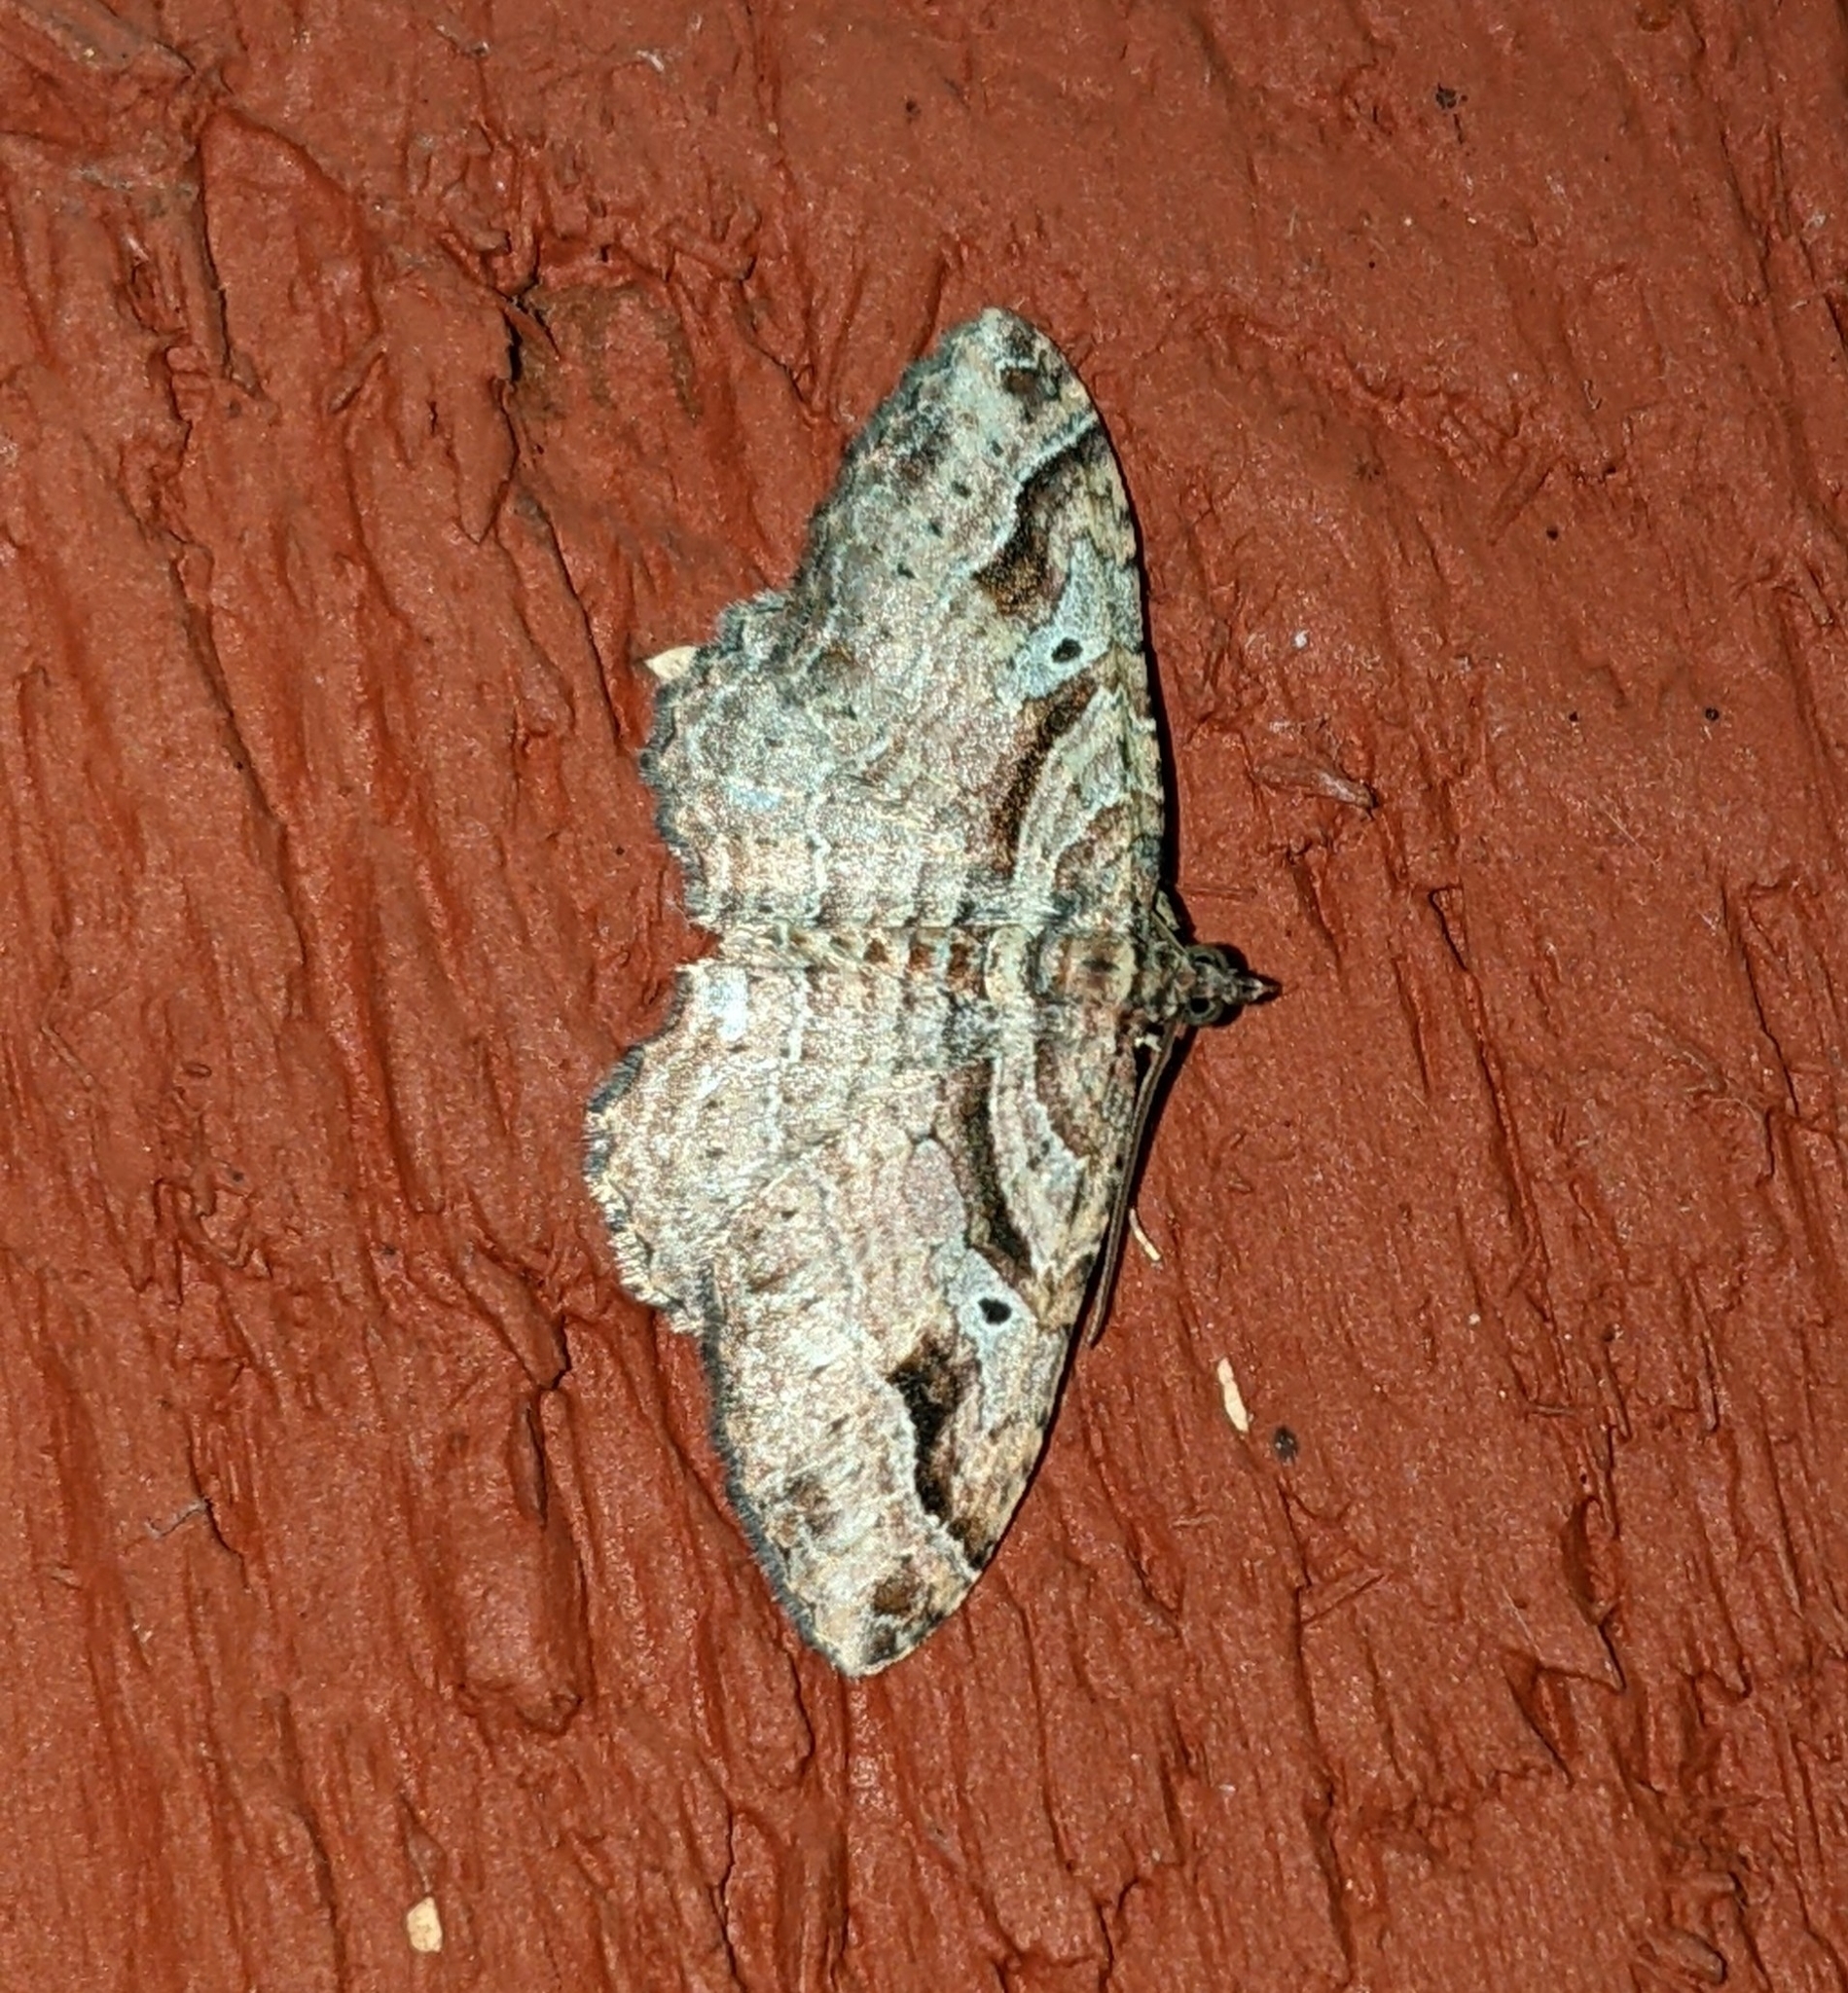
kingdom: Animalia
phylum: Arthropoda
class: Insecta
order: Lepidoptera
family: Geometridae
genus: Costaconvexa
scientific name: Costaconvexa centrostrigaria
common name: Bent-line carpet
